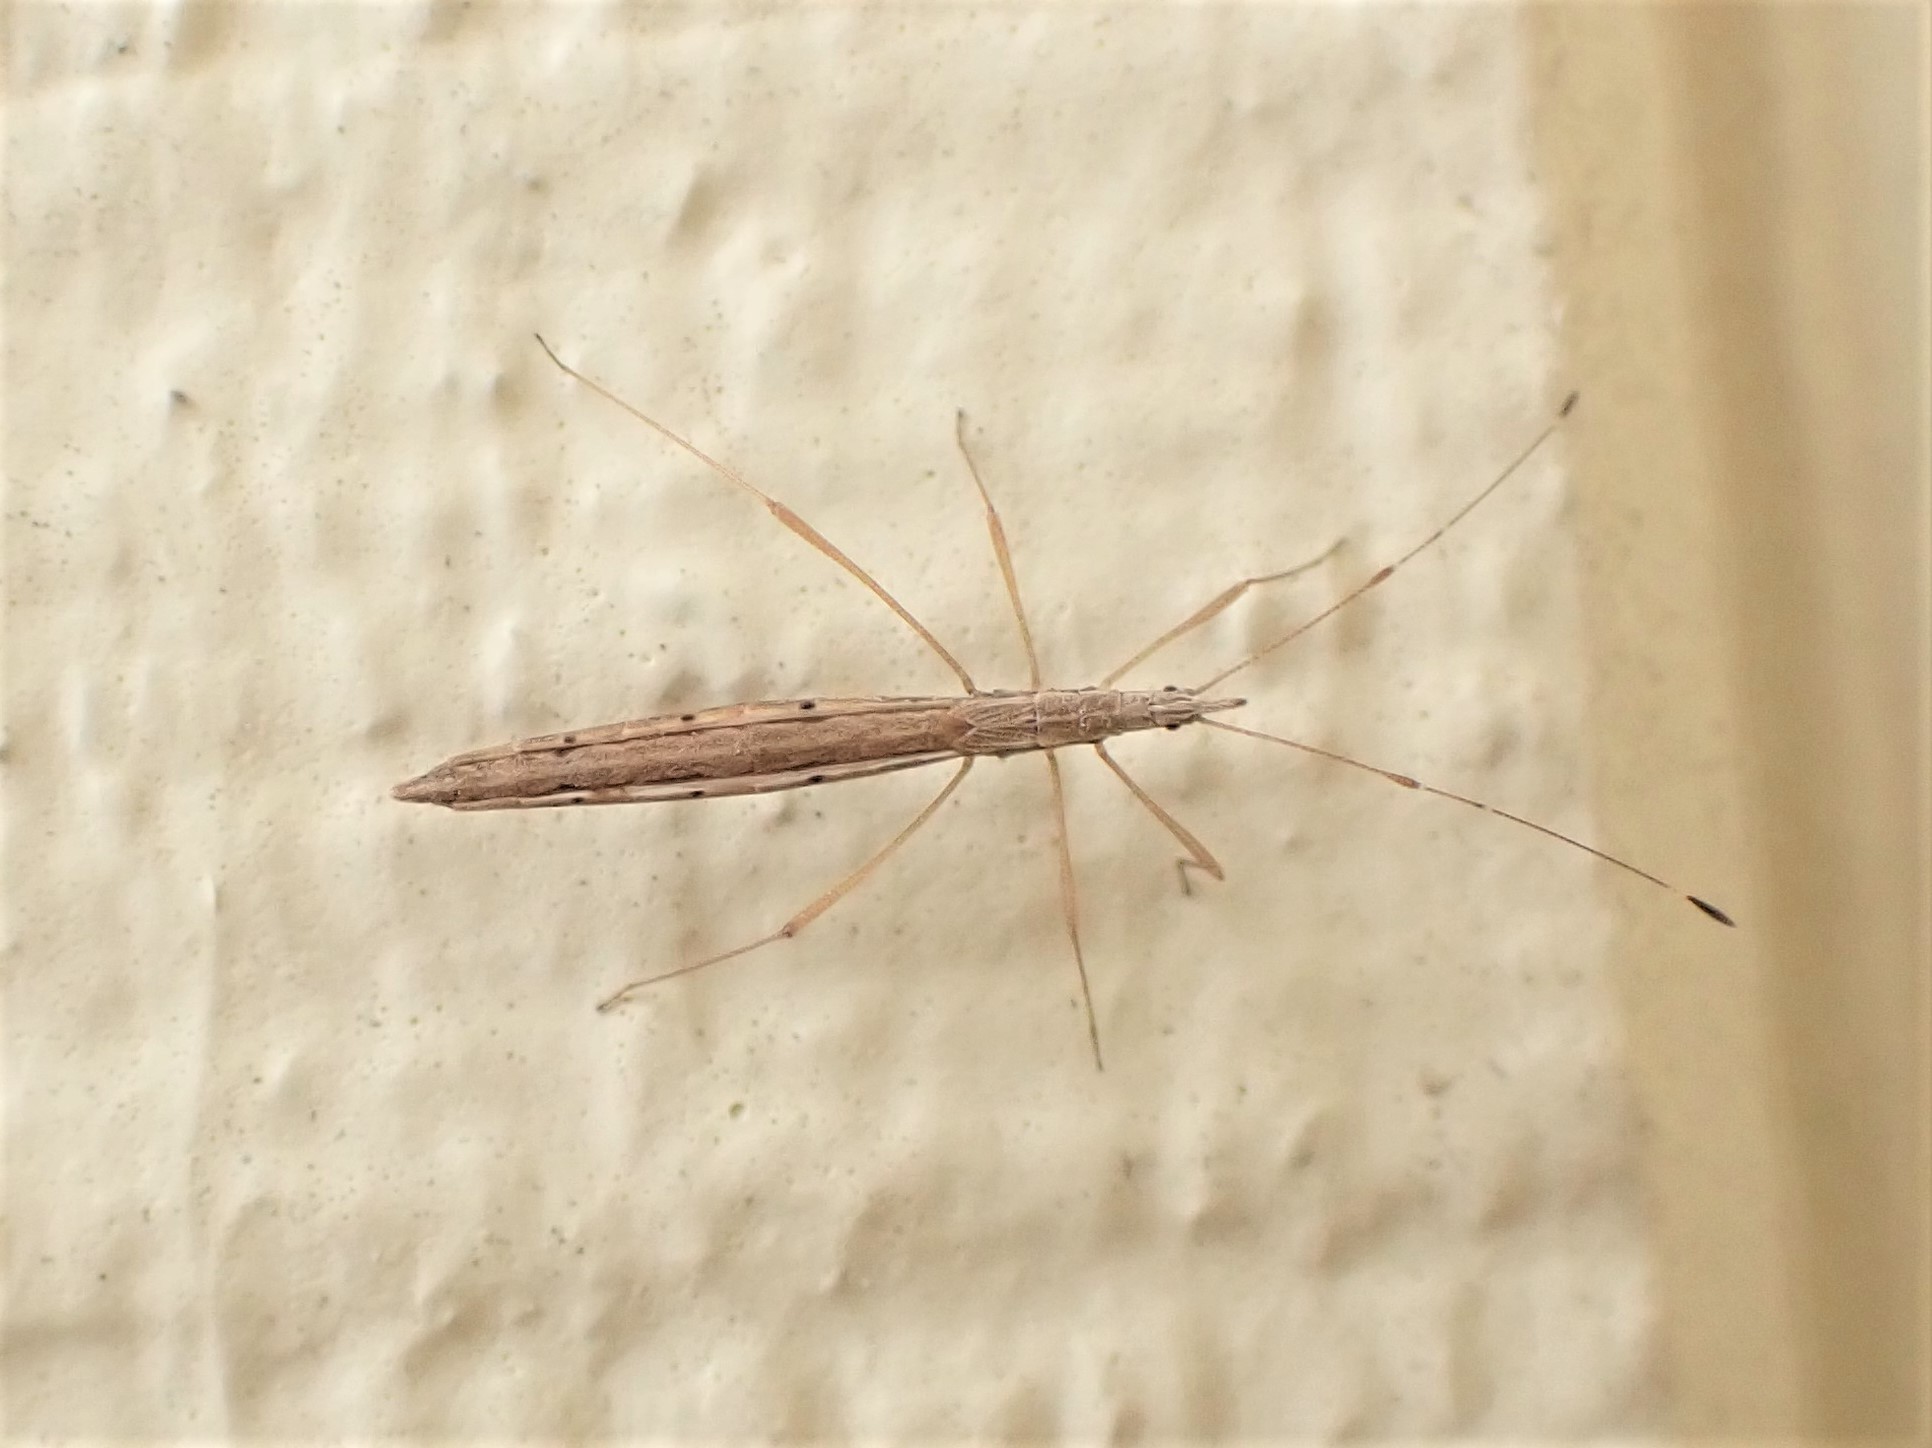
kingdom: Animalia
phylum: Arthropoda
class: Insecta
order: Hemiptera
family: Berytidae
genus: Bezu
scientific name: Bezu wakefieldi
